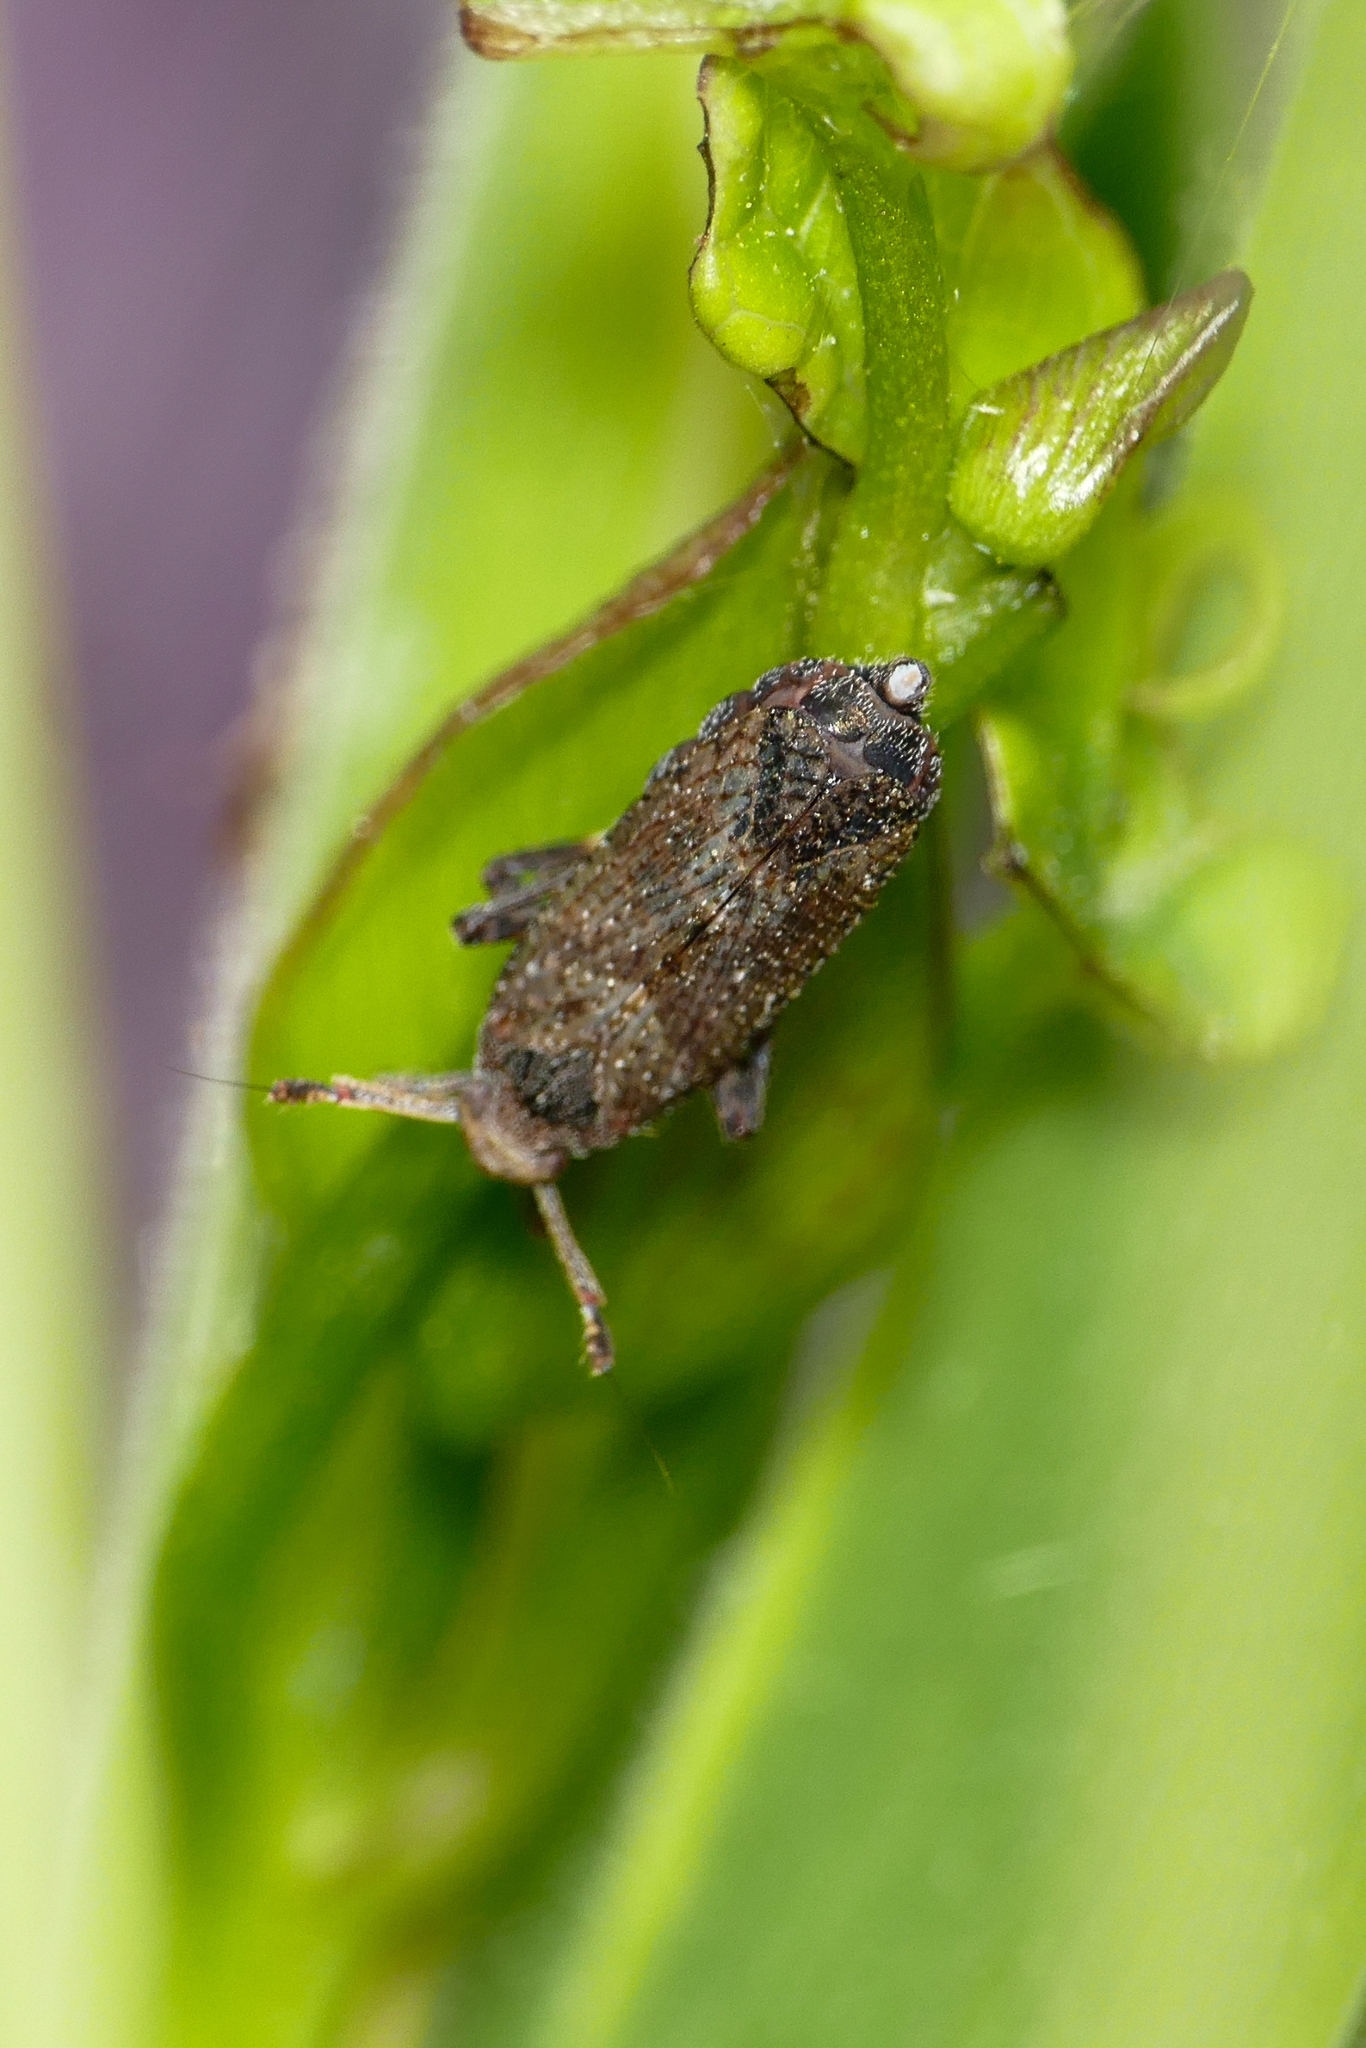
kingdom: Animalia
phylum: Arthropoda
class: Insecta
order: Hemiptera
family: Delphacidae
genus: Asiraca
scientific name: Asiraca clavicornis
